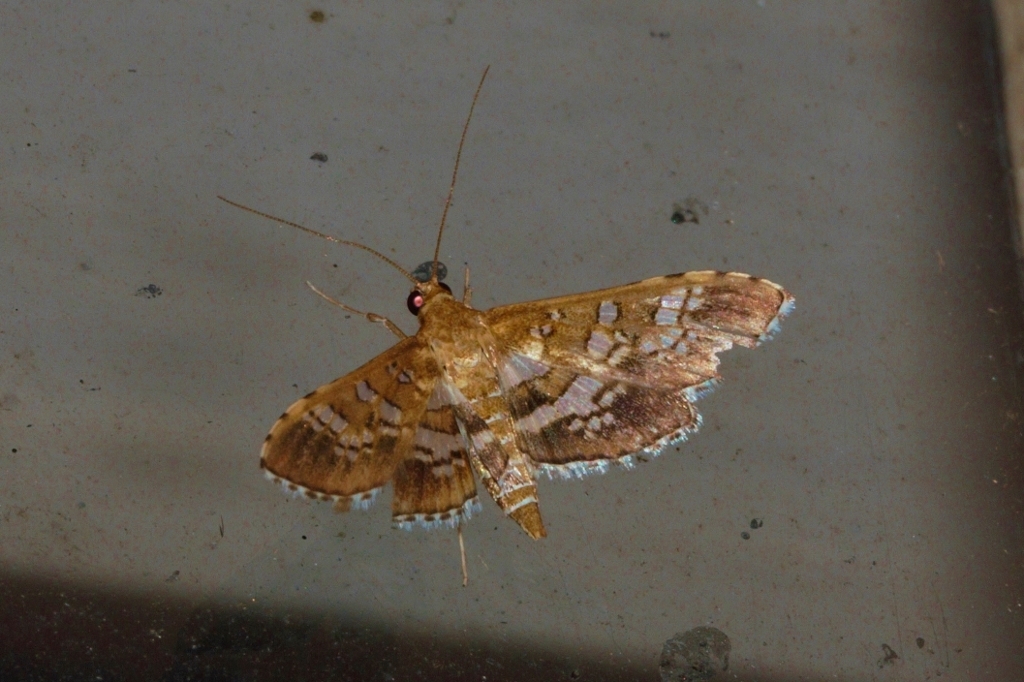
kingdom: Animalia
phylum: Arthropoda
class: Insecta
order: Lepidoptera
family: Crambidae
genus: Sameodes
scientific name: Sameodes cancellalis
